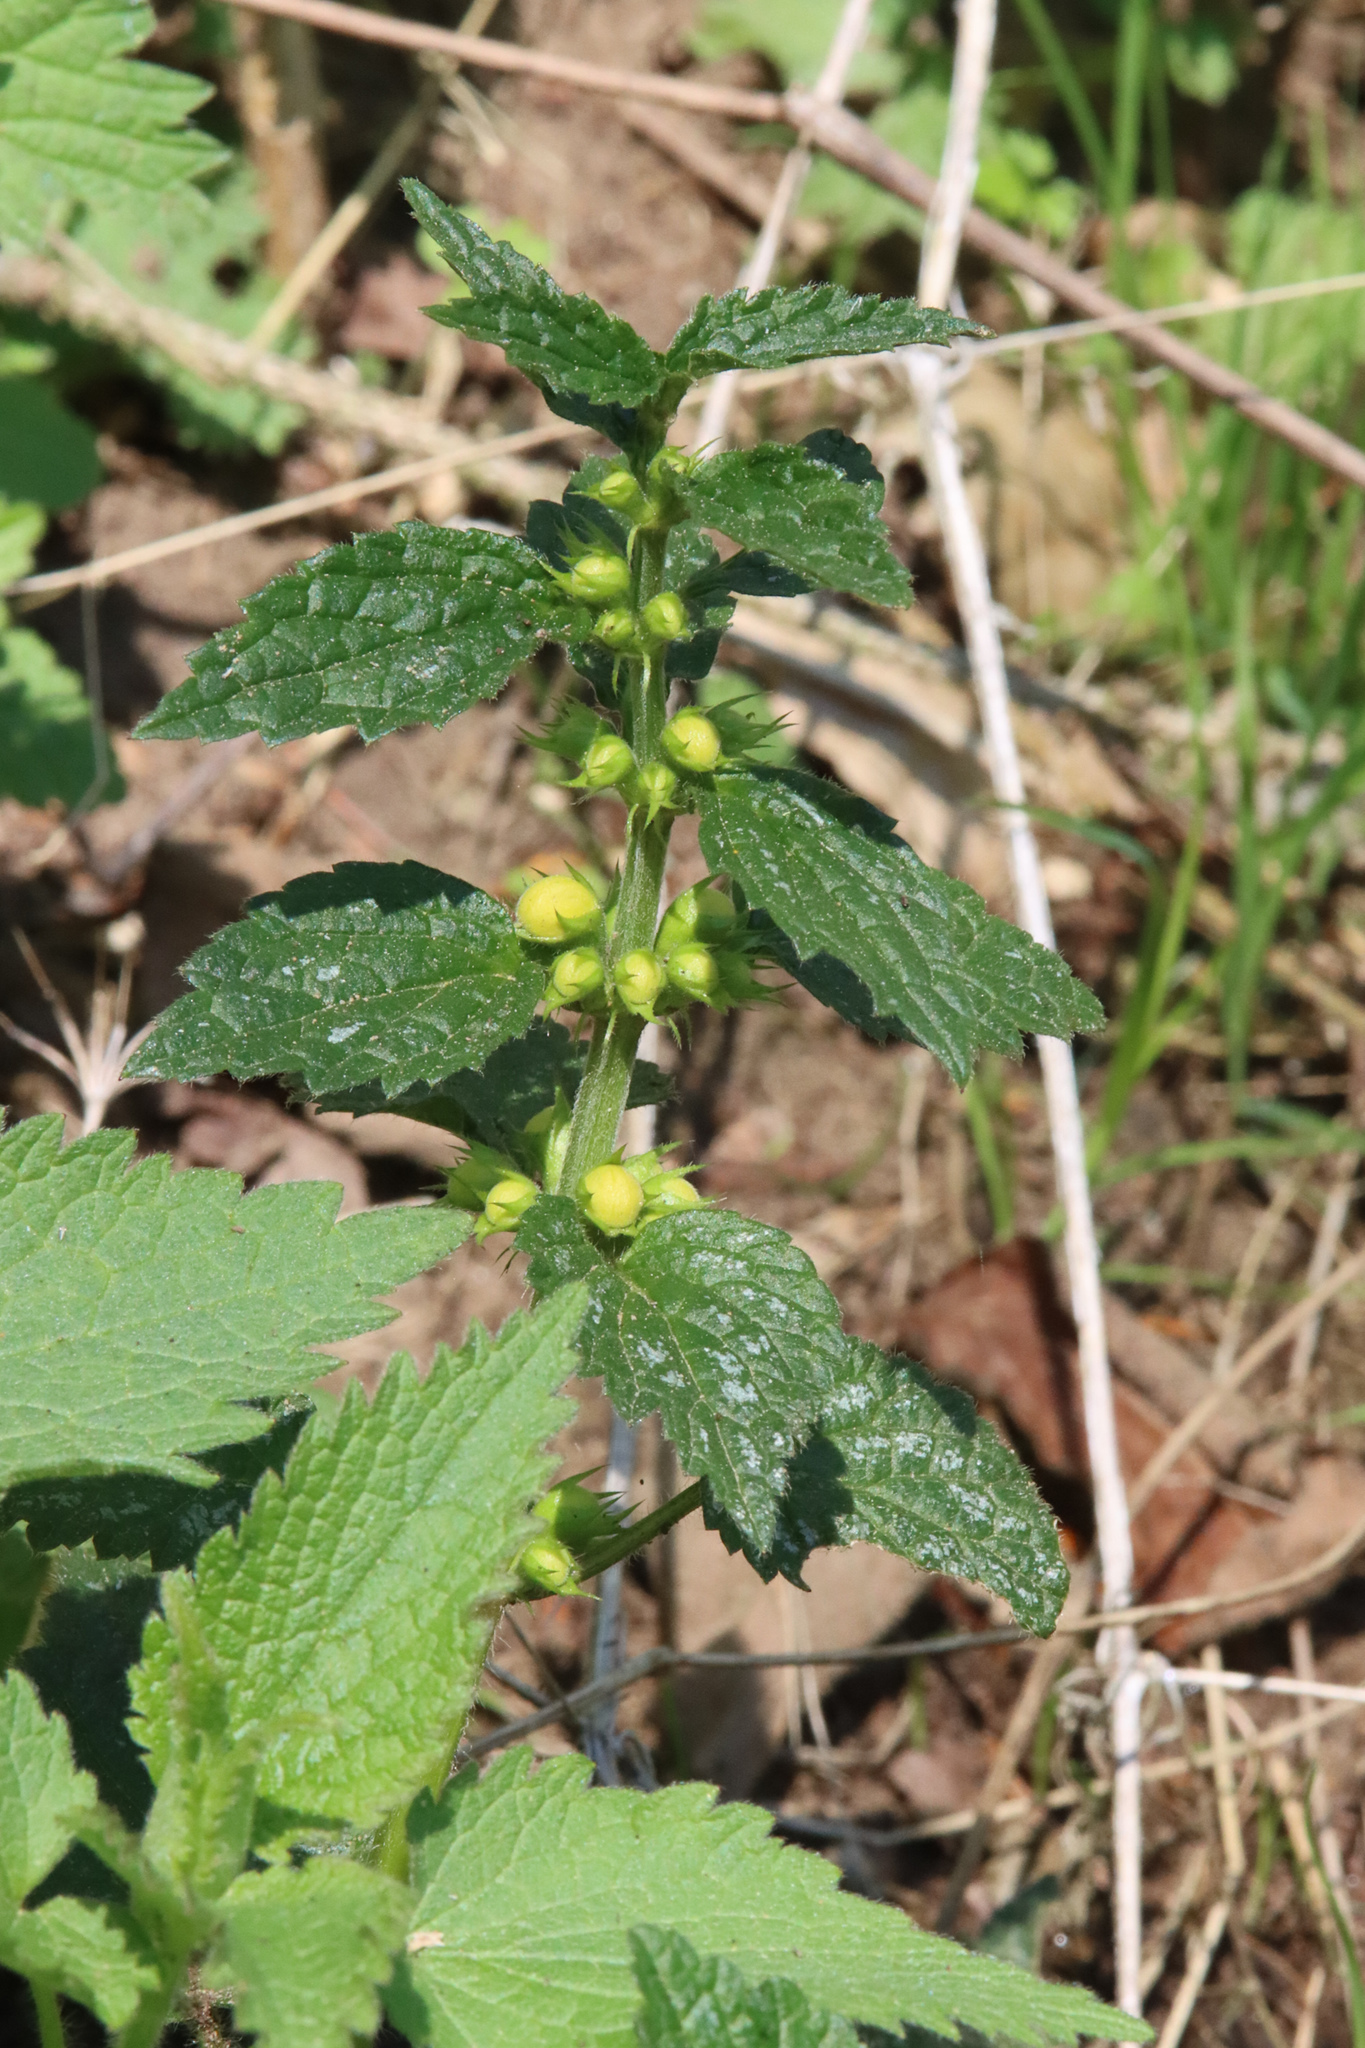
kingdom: Plantae
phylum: Tracheophyta
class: Magnoliopsida
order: Lamiales
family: Lamiaceae
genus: Lamium
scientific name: Lamium galeobdolon
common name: Yellow archangel
